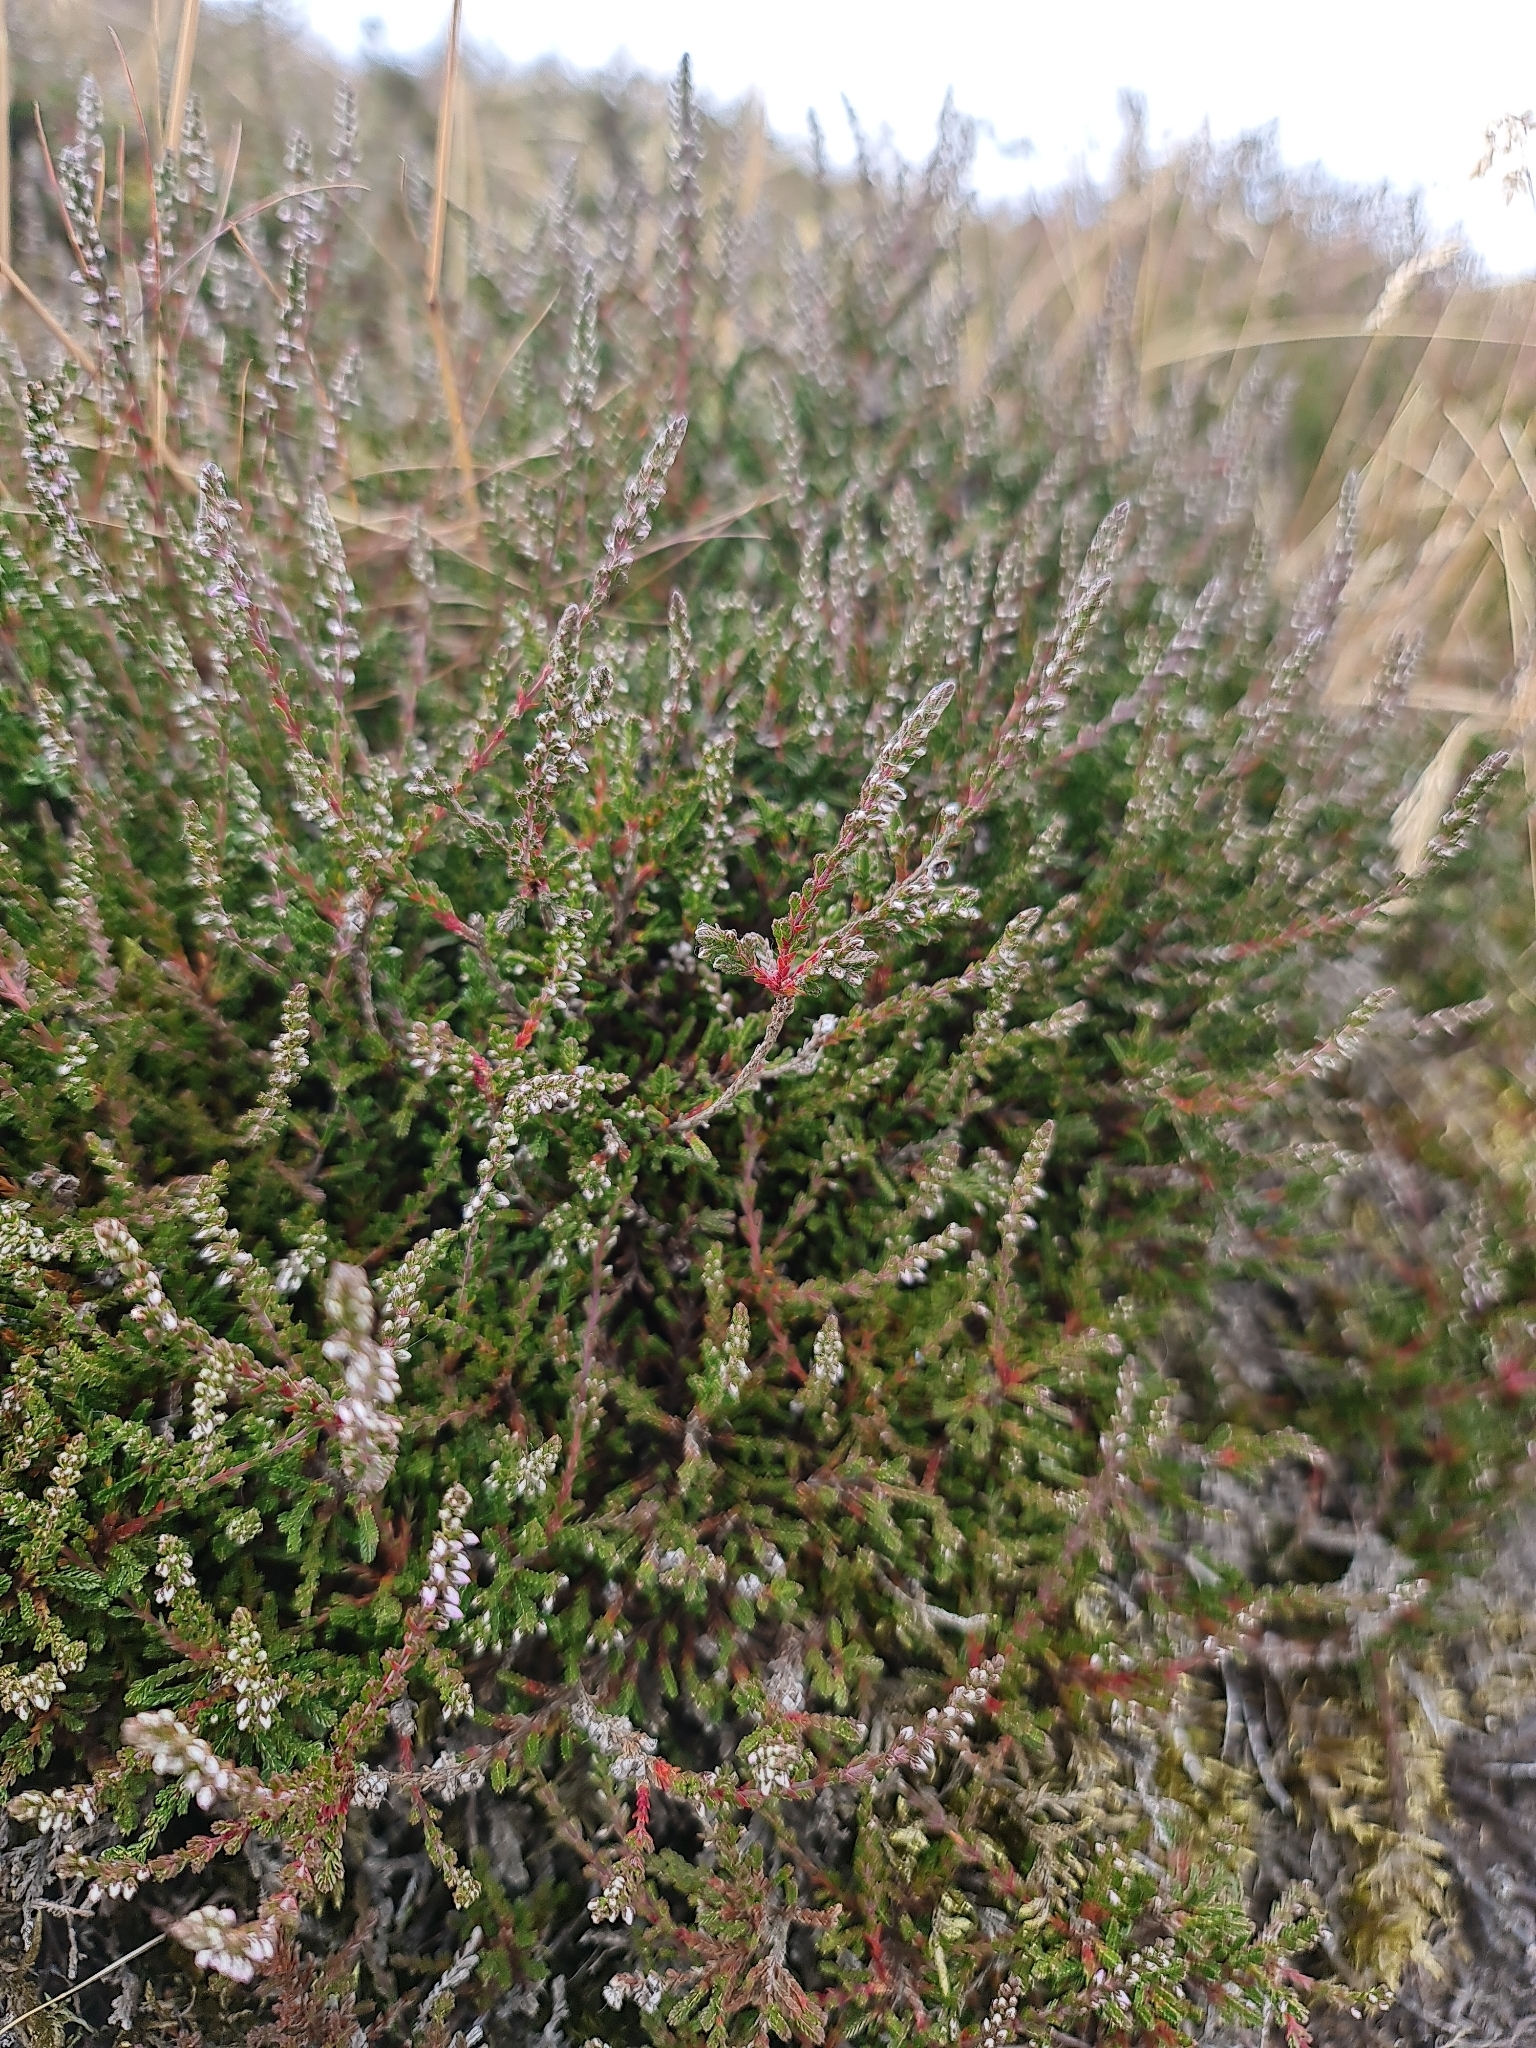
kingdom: Plantae
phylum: Tracheophyta
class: Magnoliopsida
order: Ericales
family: Ericaceae
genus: Calluna
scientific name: Calluna vulgaris
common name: Heather
